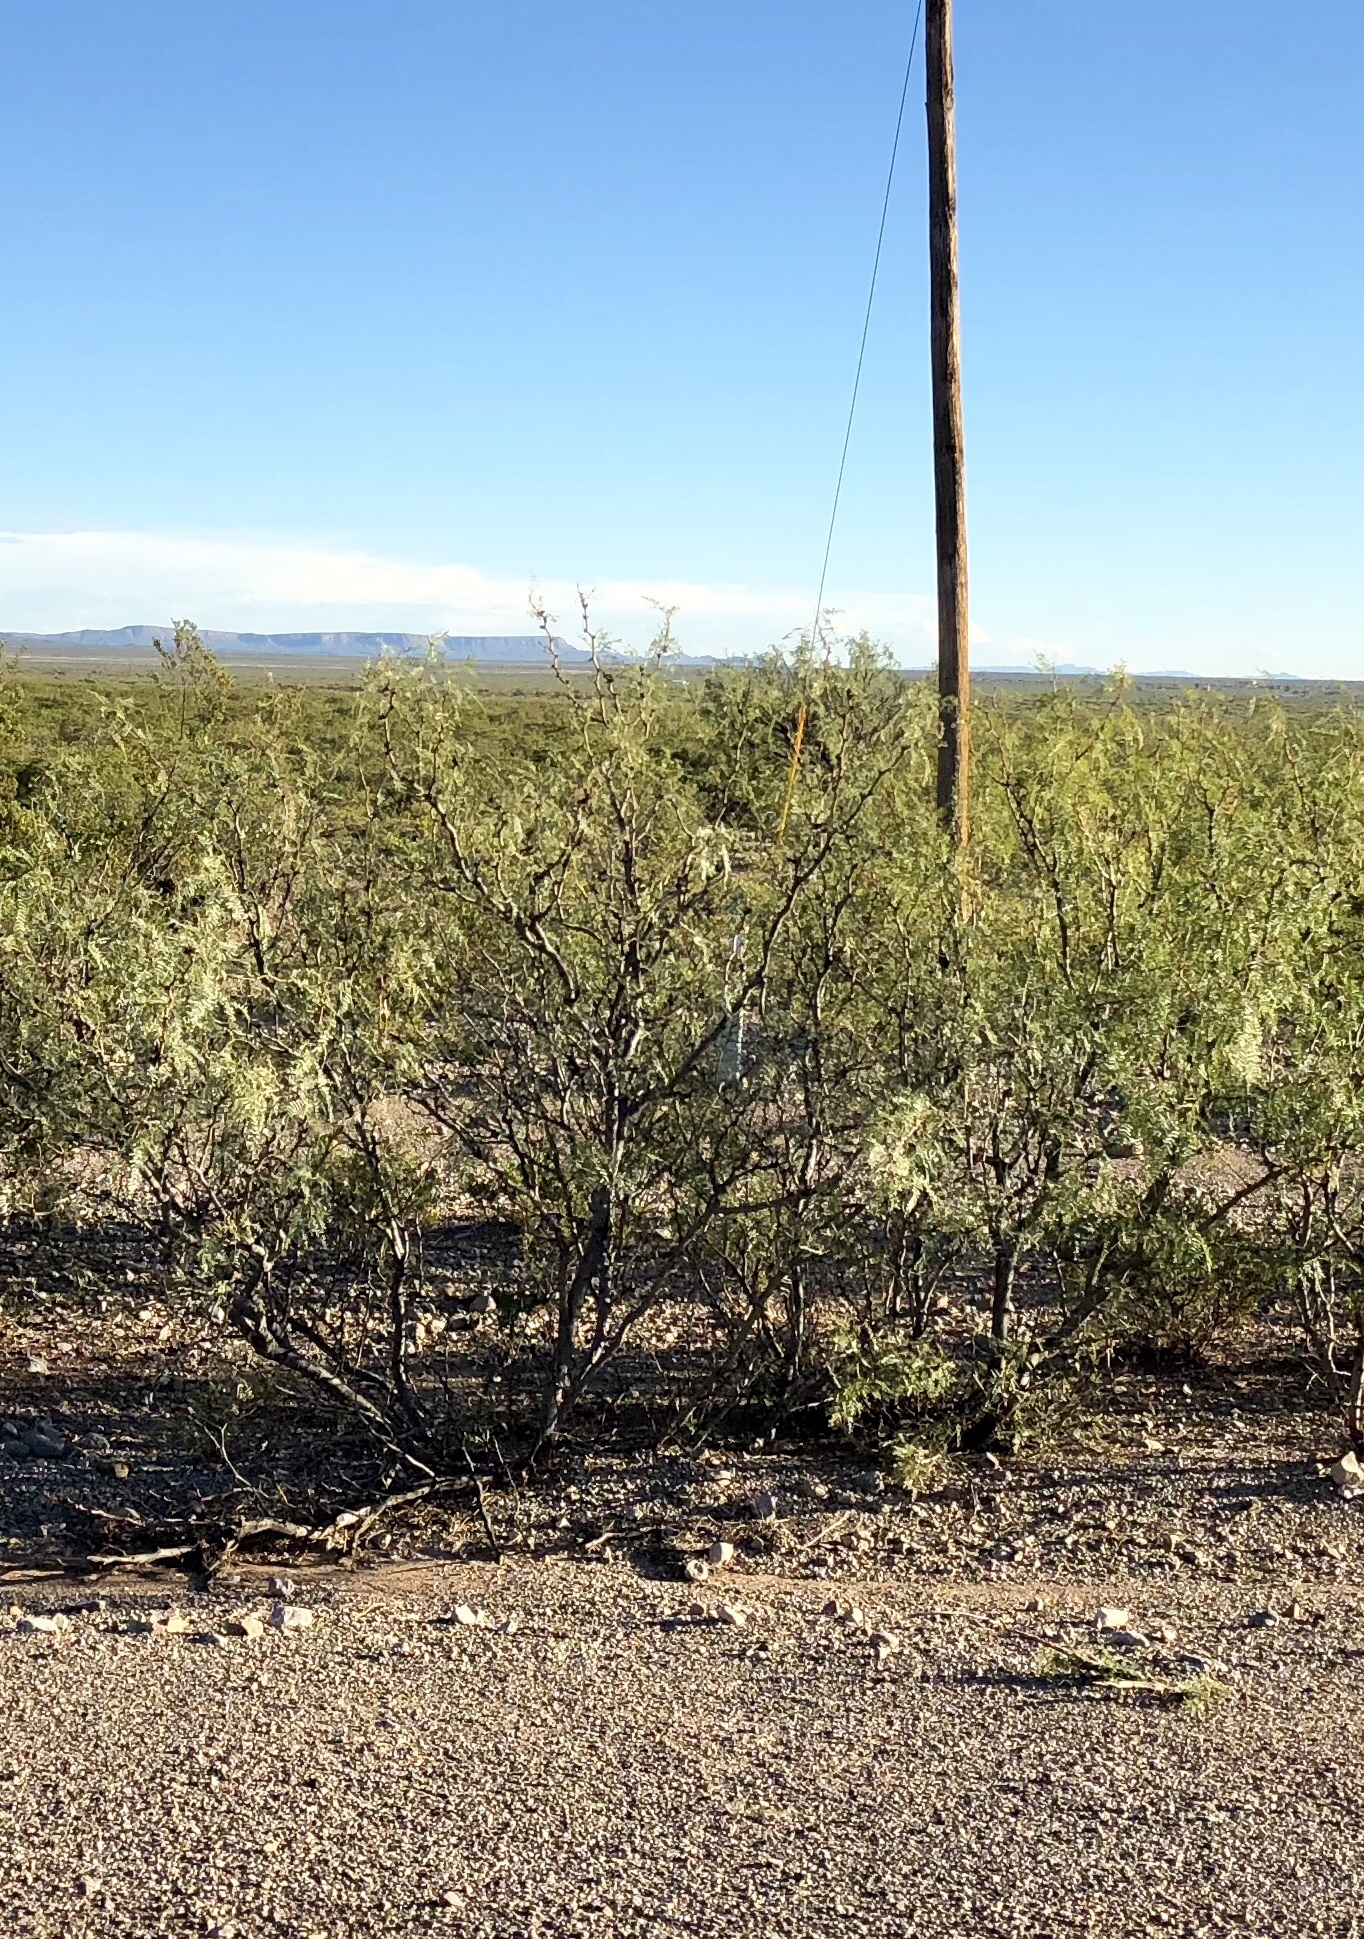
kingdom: Plantae
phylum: Tracheophyta
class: Magnoliopsida
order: Zygophyllales
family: Zygophyllaceae
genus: Larrea
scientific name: Larrea tridentata
